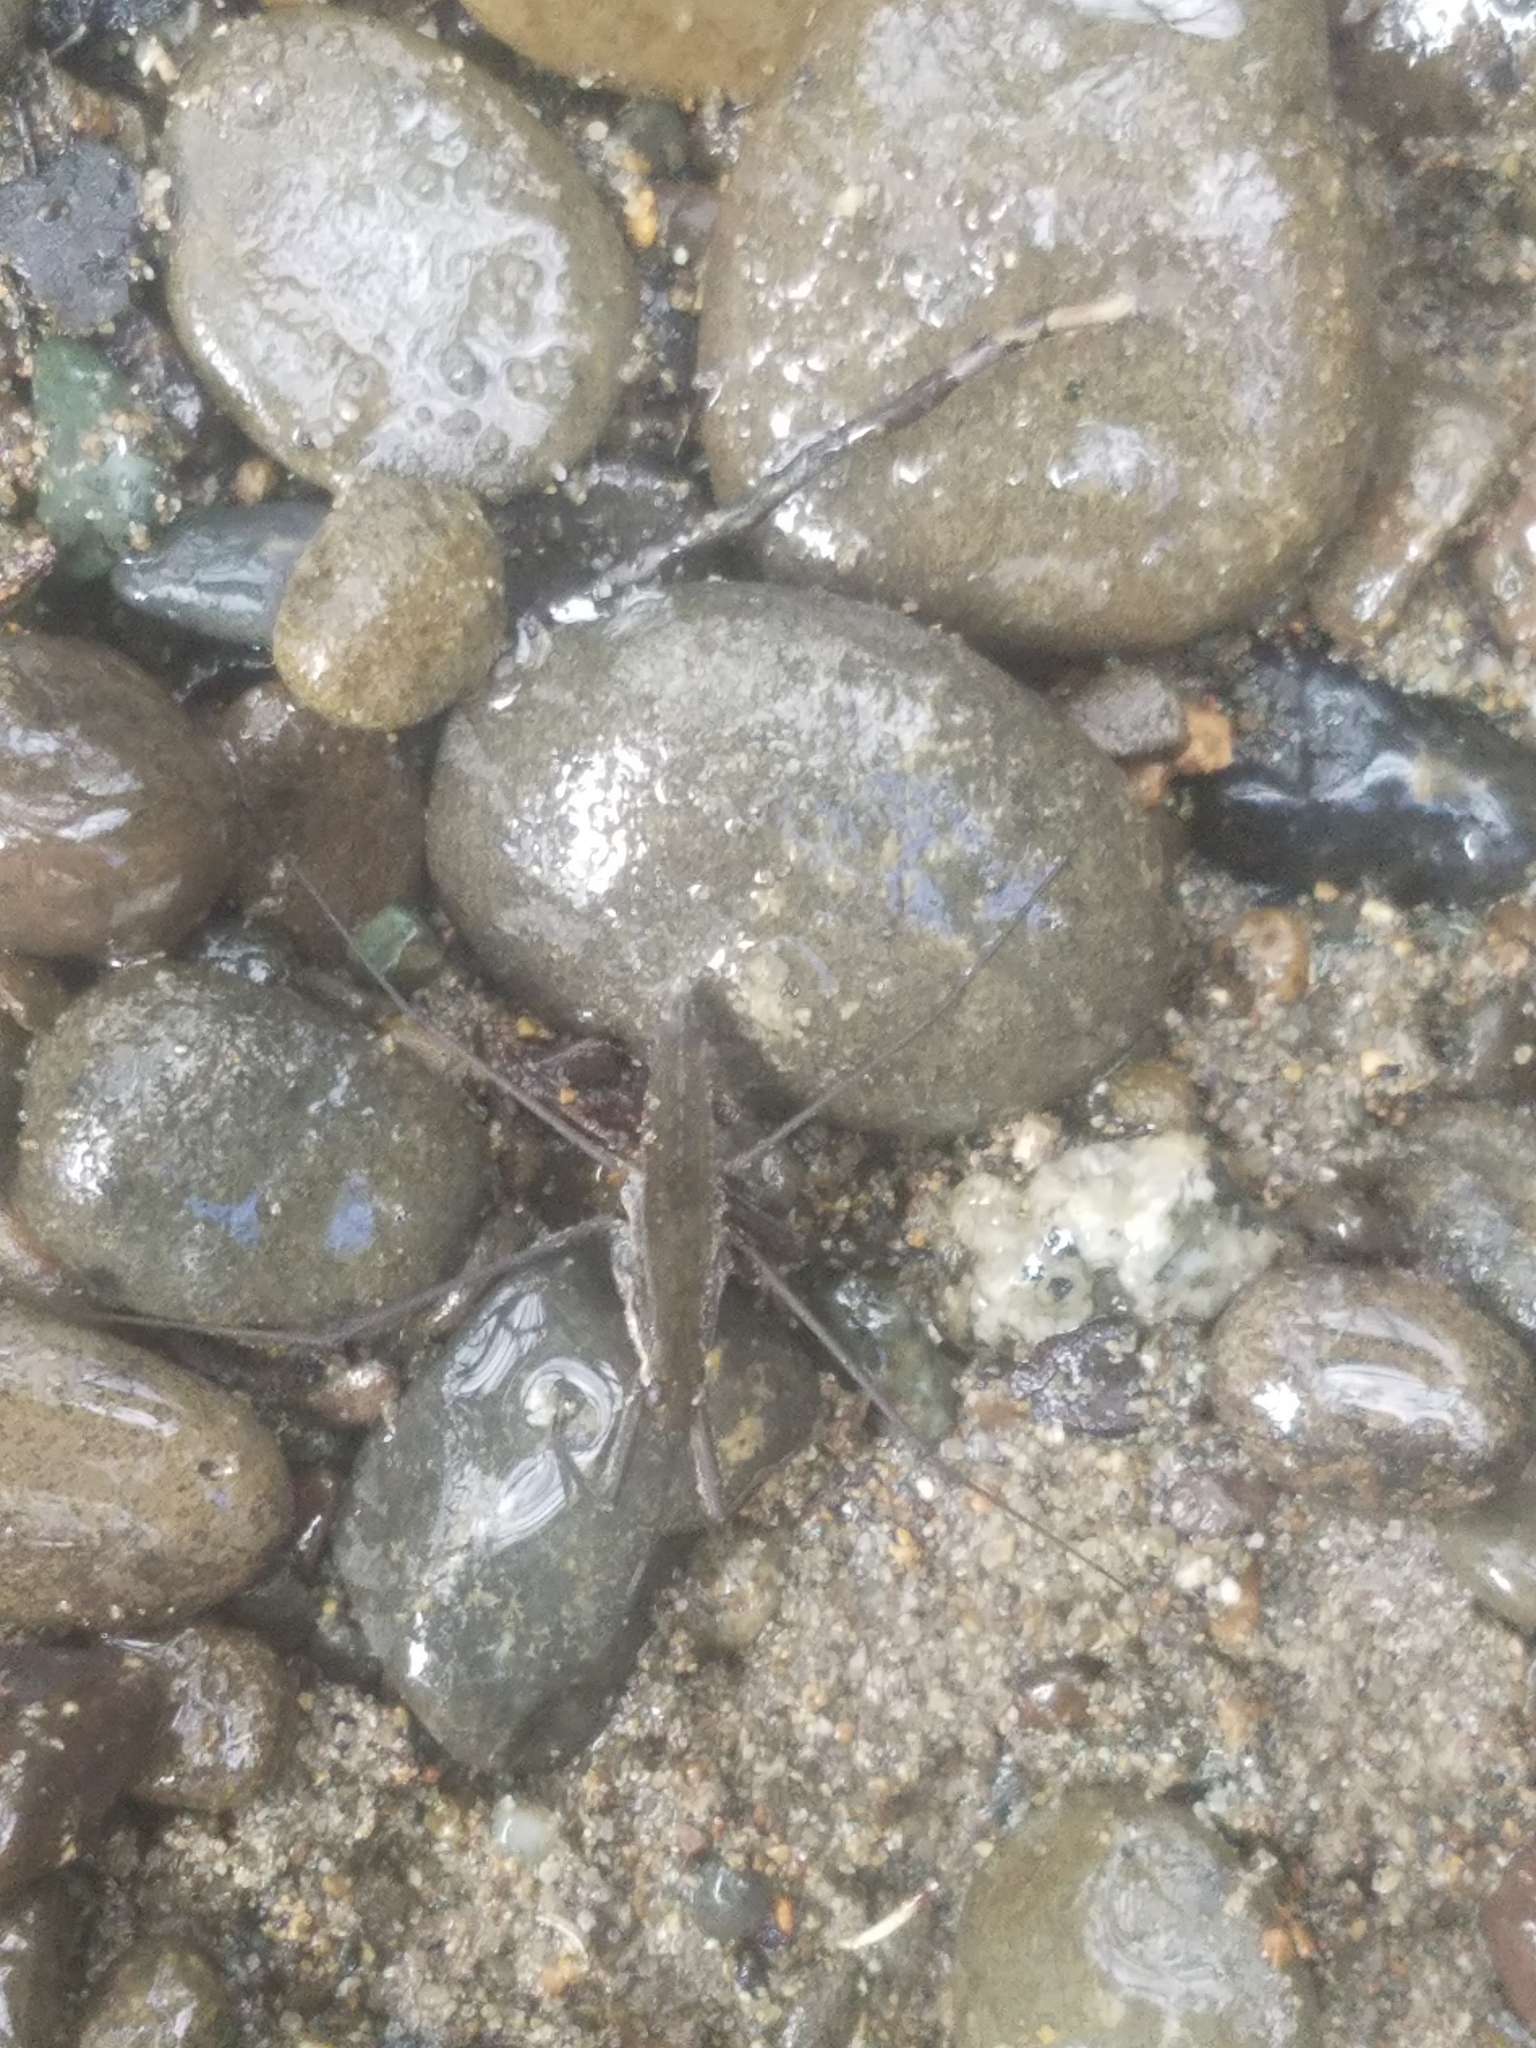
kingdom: Animalia
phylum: Arthropoda
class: Insecta
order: Hemiptera
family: Gerridae
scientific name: Gerridae
